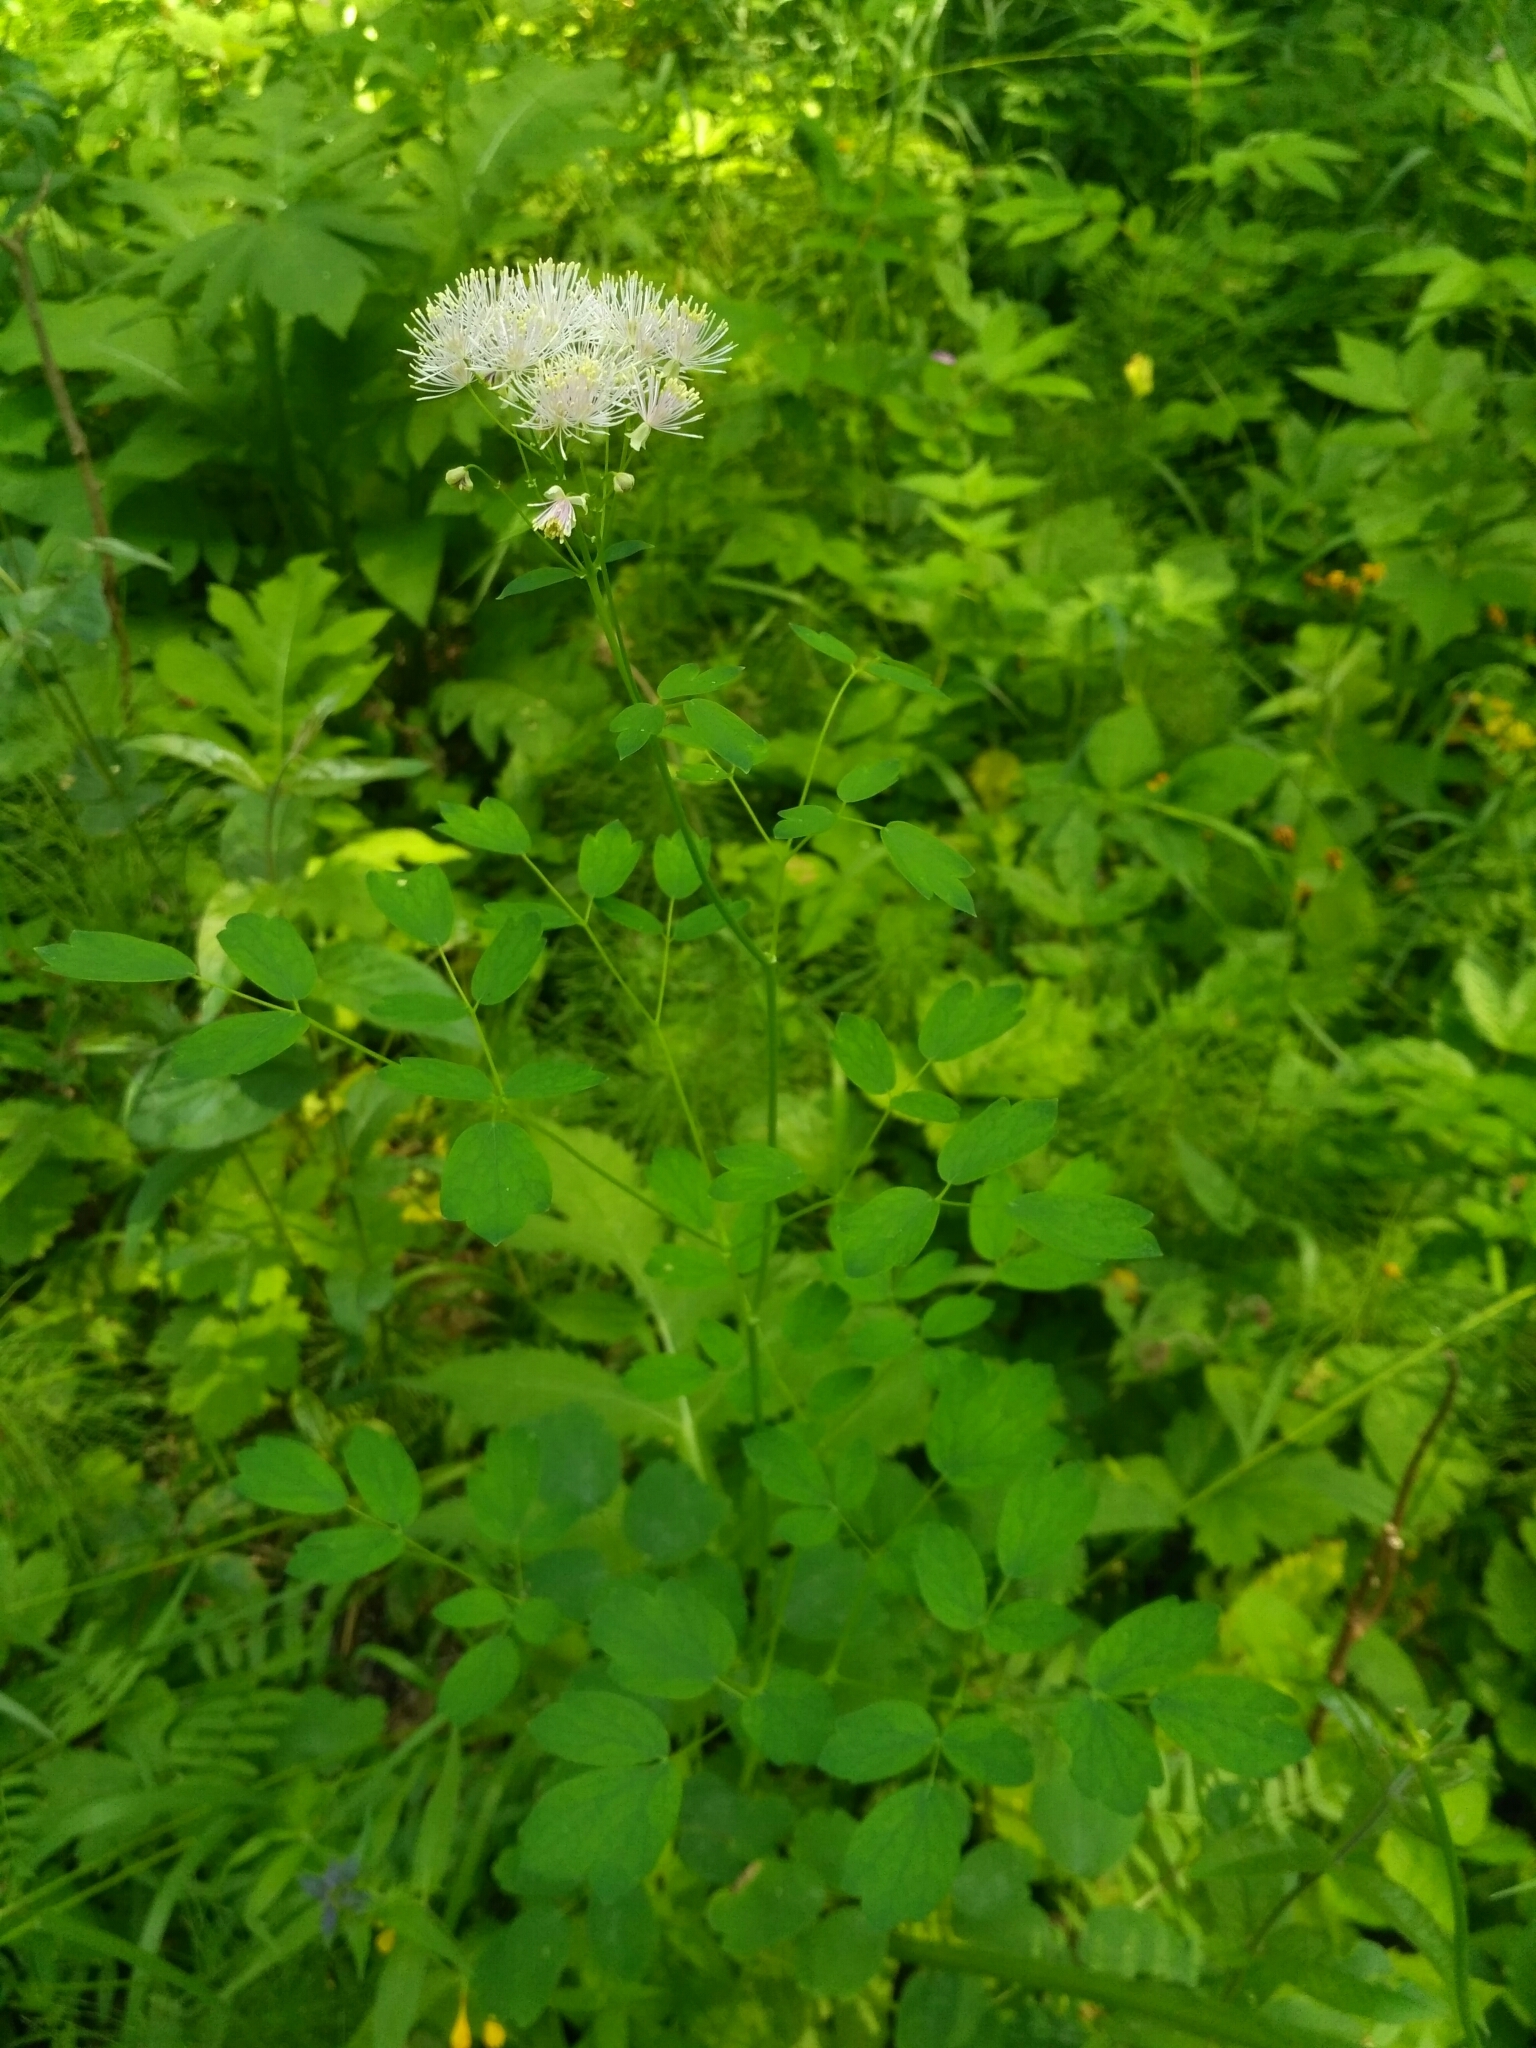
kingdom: Plantae
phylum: Tracheophyta
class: Magnoliopsida
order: Ranunculales
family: Ranunculaceae
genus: Thalictrum
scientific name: Thalictrum aquilegiifolium
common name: French meadow-rue
